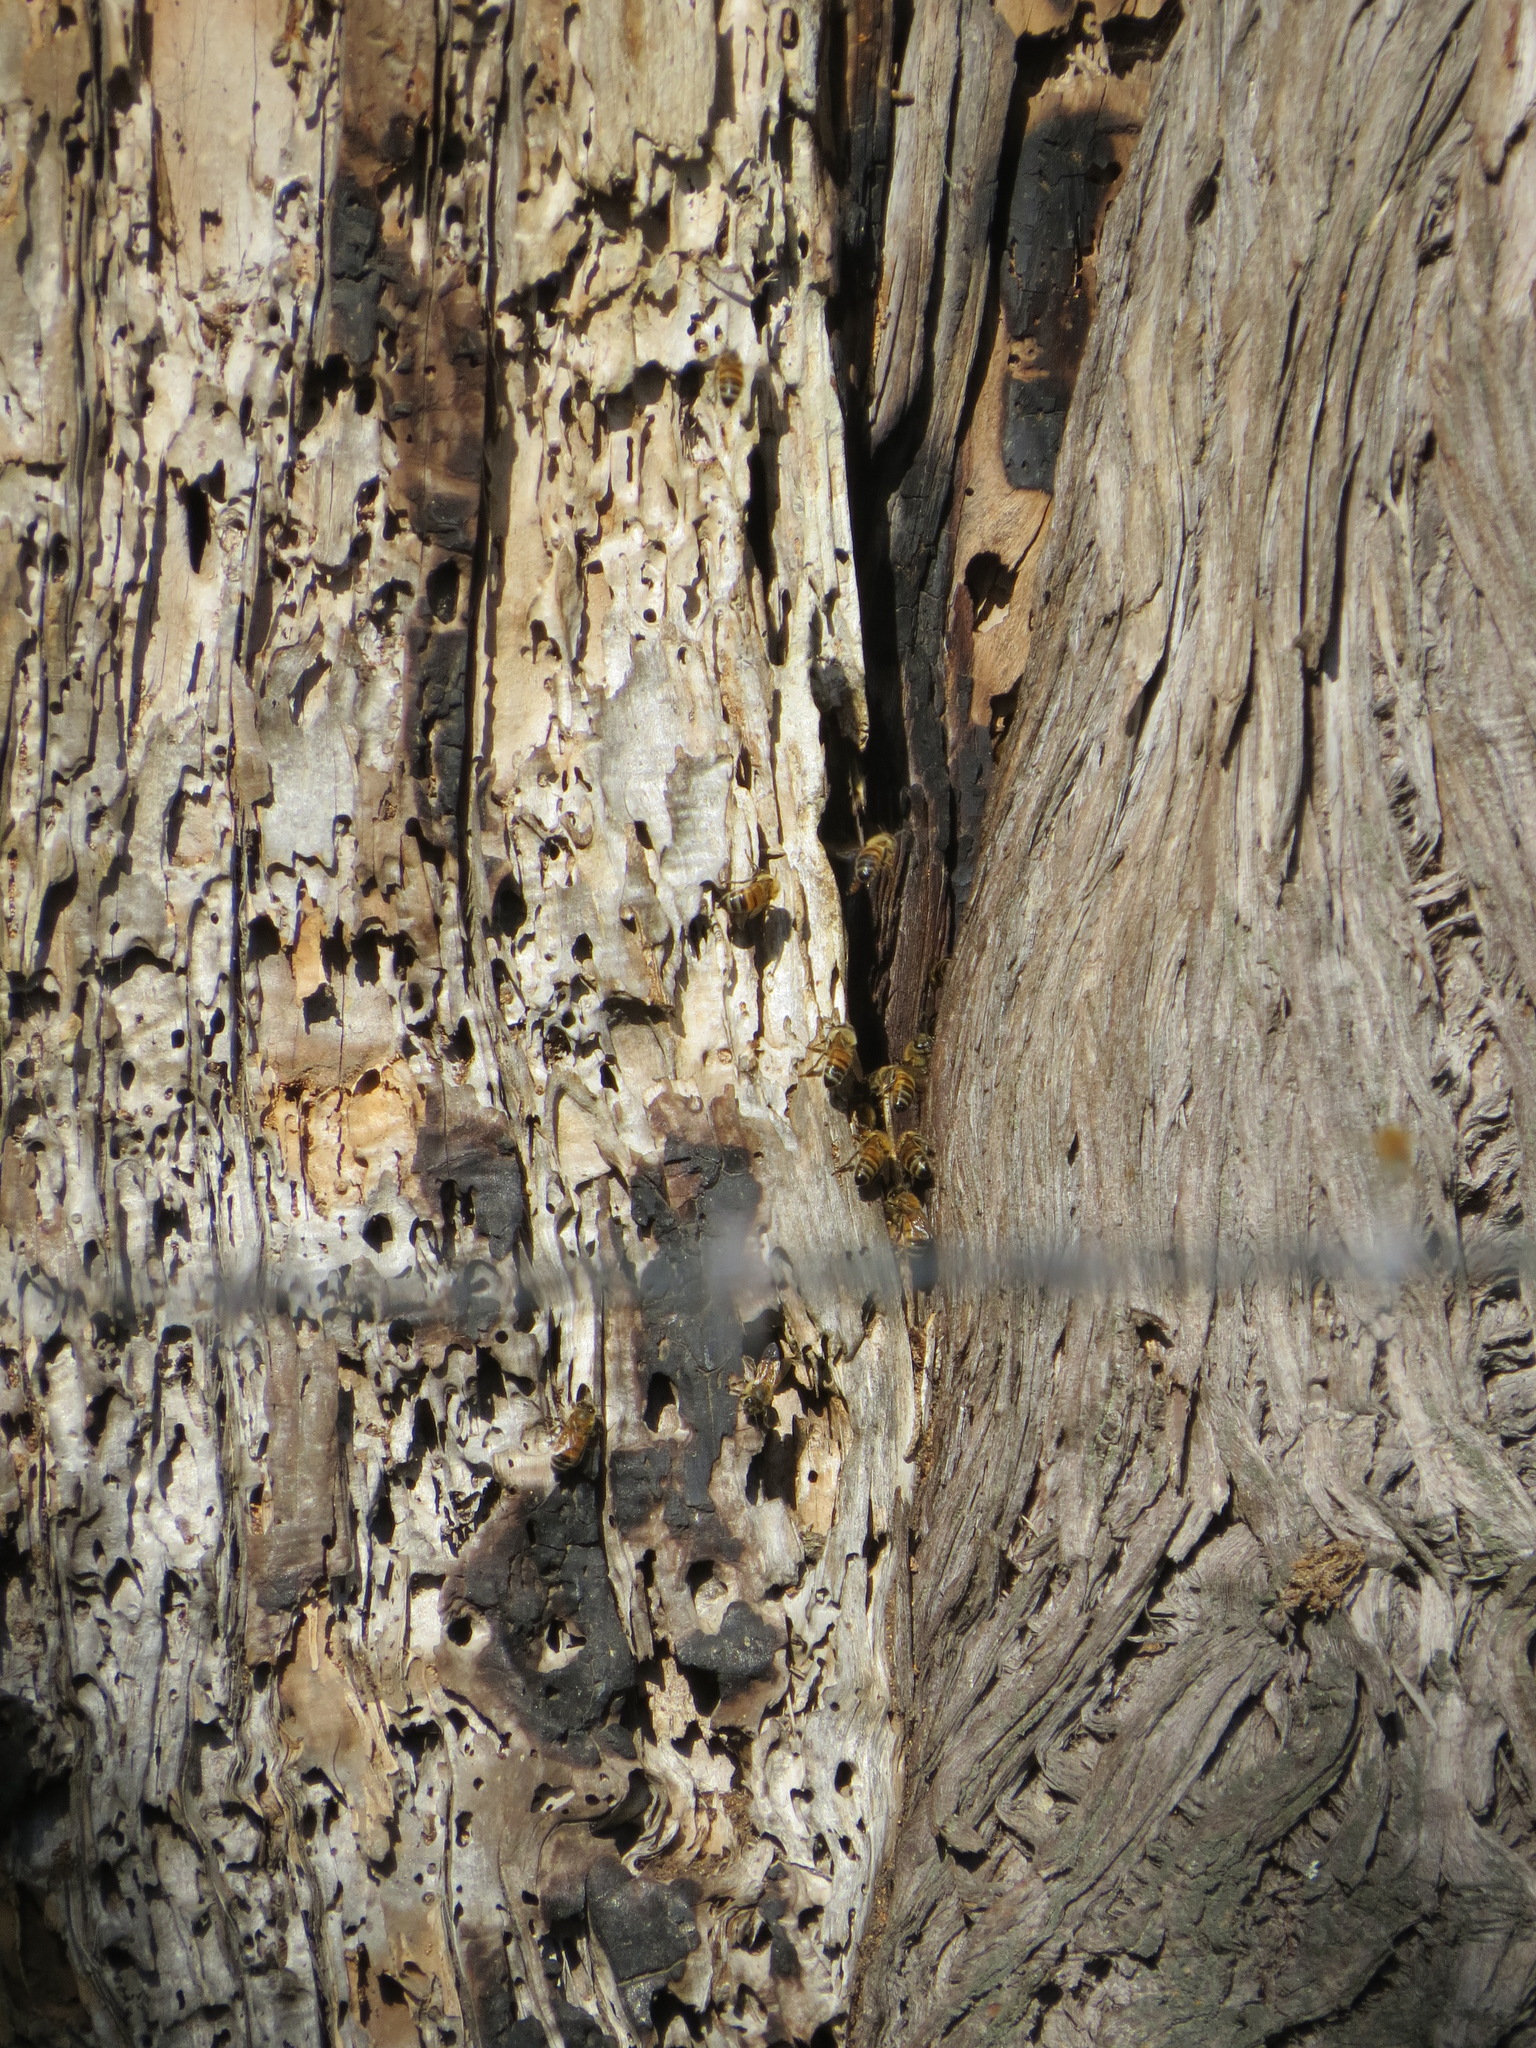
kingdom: Animalia
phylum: Arthropoda
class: Insecta
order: Hymenoptera
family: Apidae
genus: Apis
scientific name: Apis mellifera
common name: Honey bee
